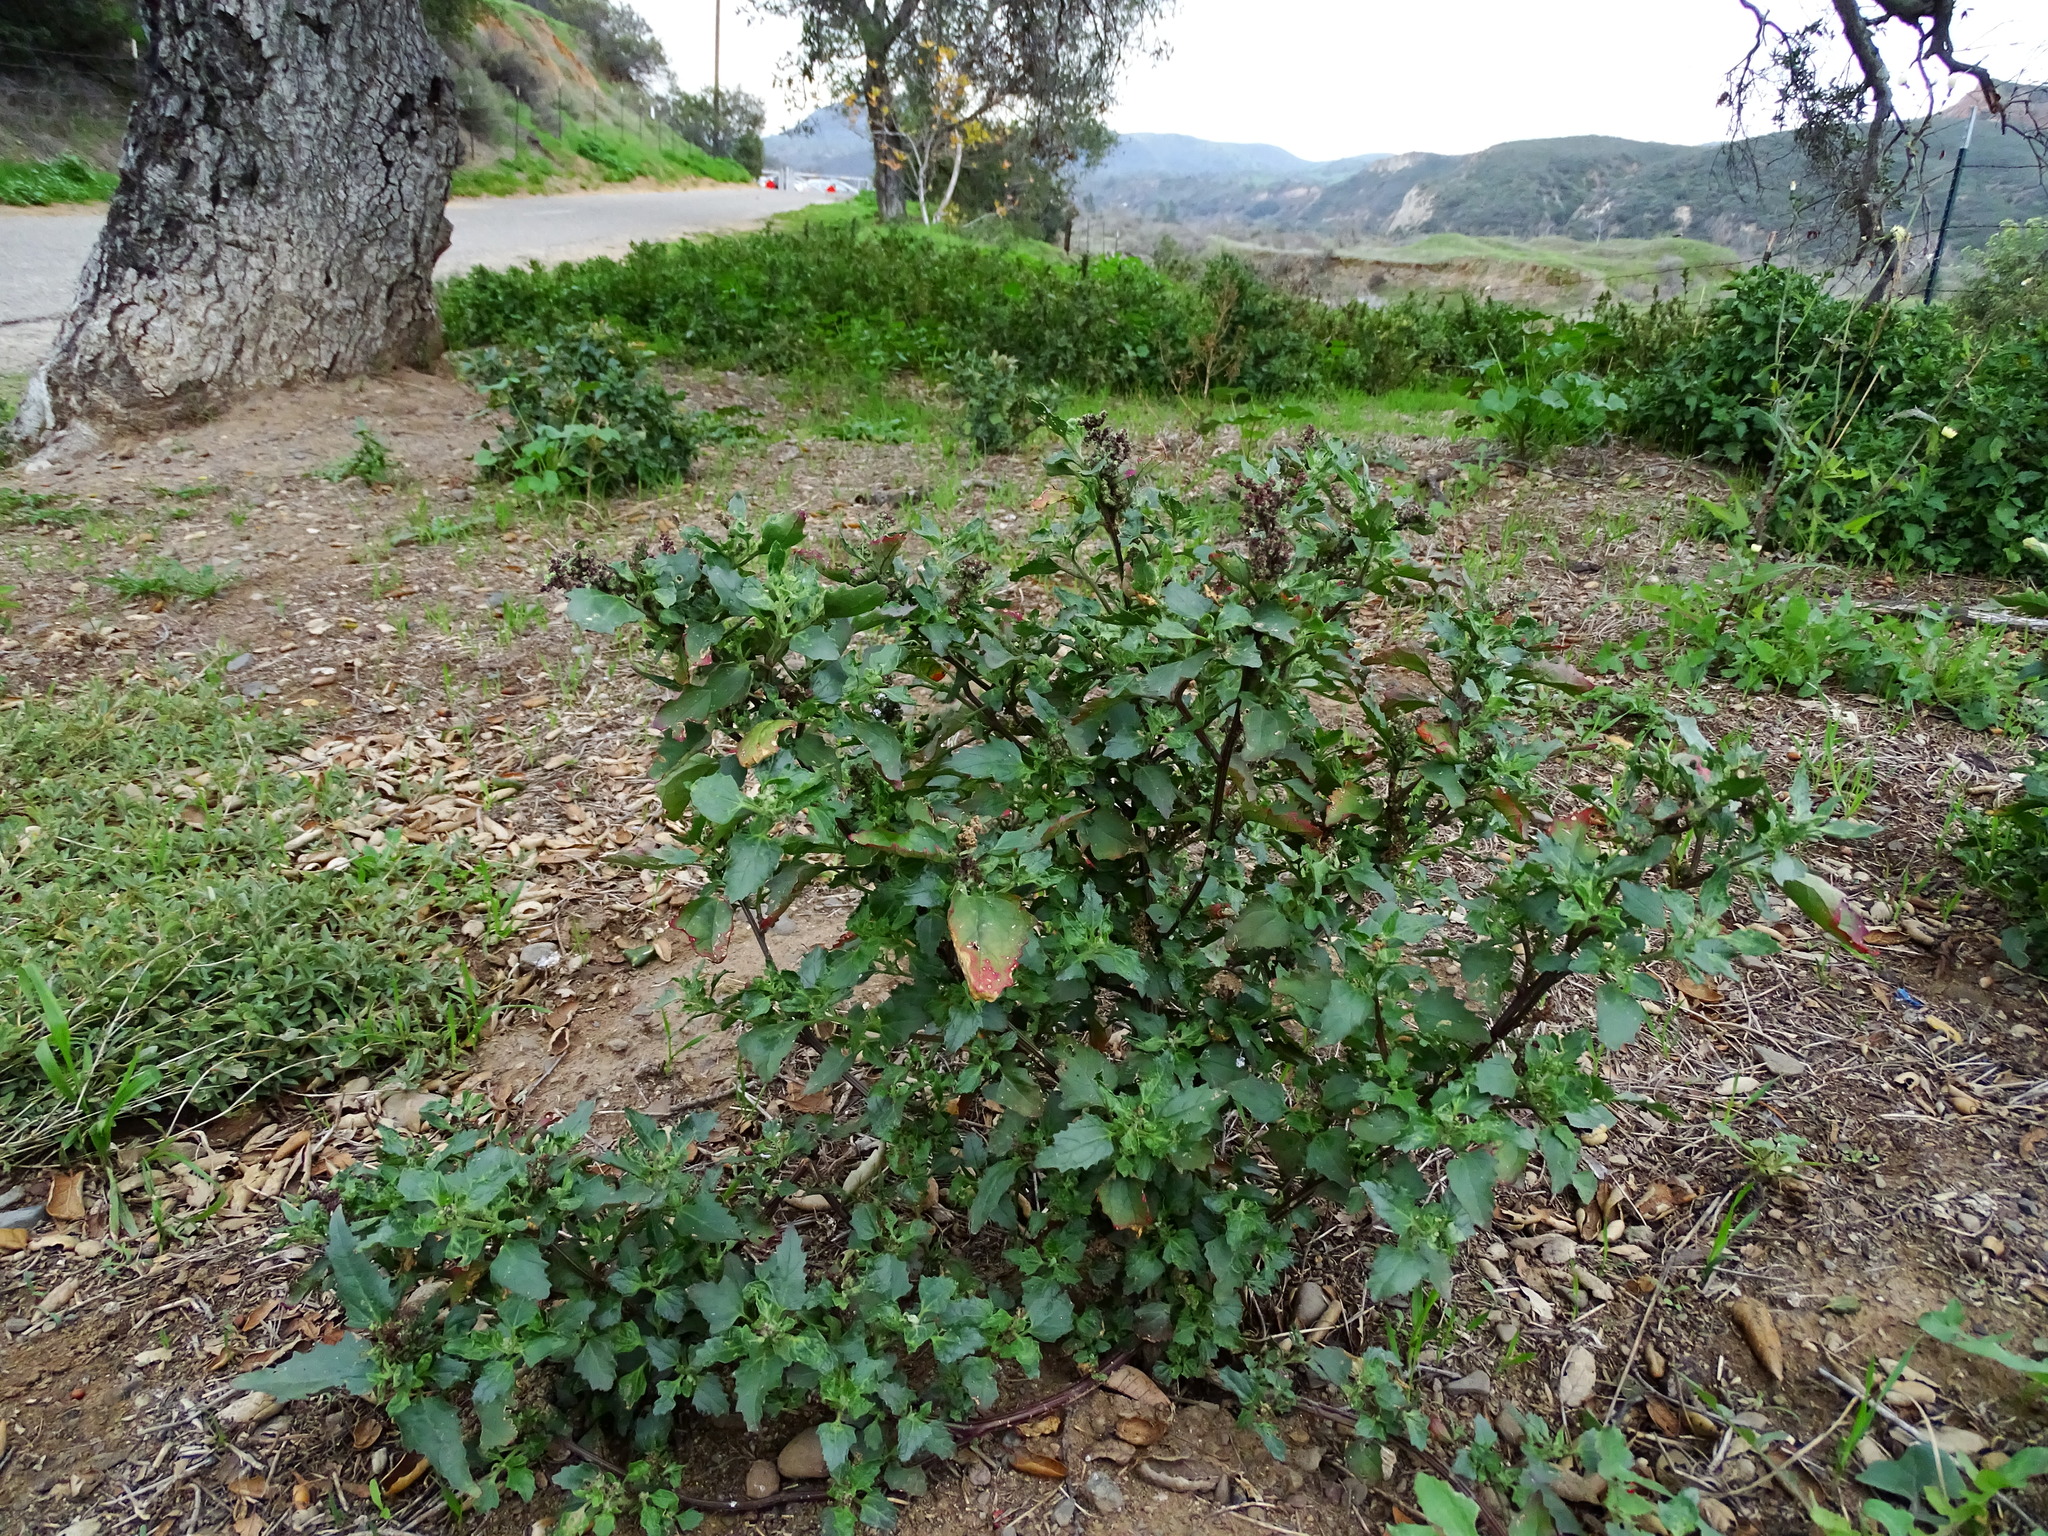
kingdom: Plantae
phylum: Tracheophyta
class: Magnoliopsida
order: Caryophyllales
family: Amaranthaceae
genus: Chenopodiastrum
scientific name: Chenopodiastrum murale
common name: Sowbane
